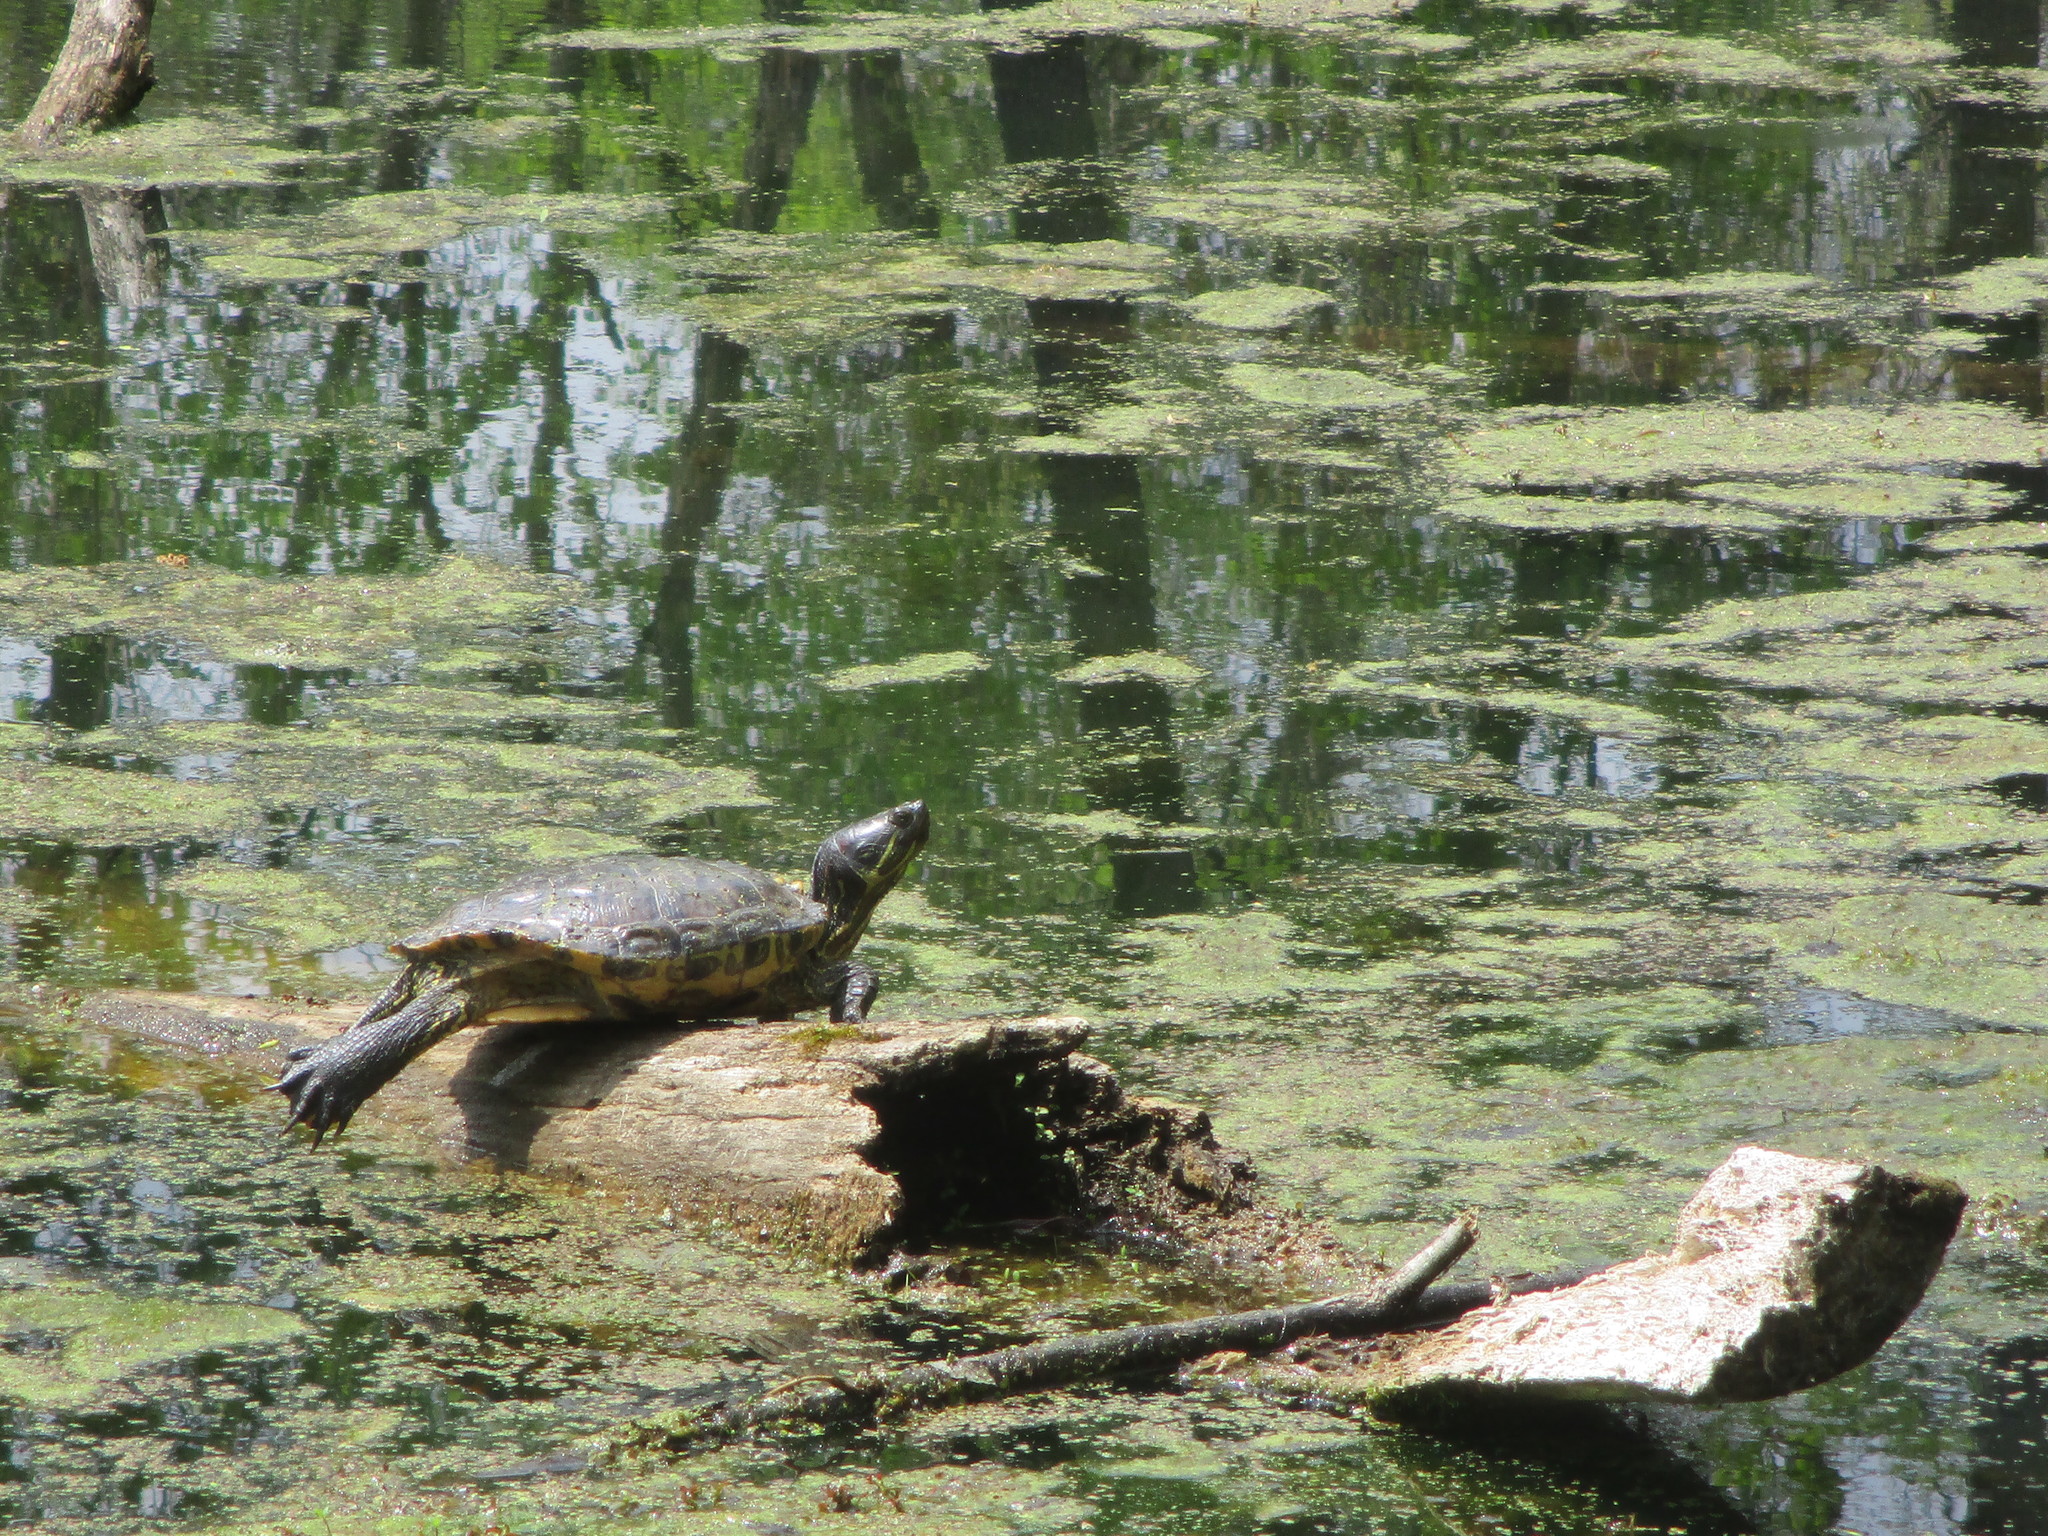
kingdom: Animalia
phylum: Chordata
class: Testudines
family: Emydidae
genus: Trachemys
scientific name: Trachemys scripta
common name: Slider
